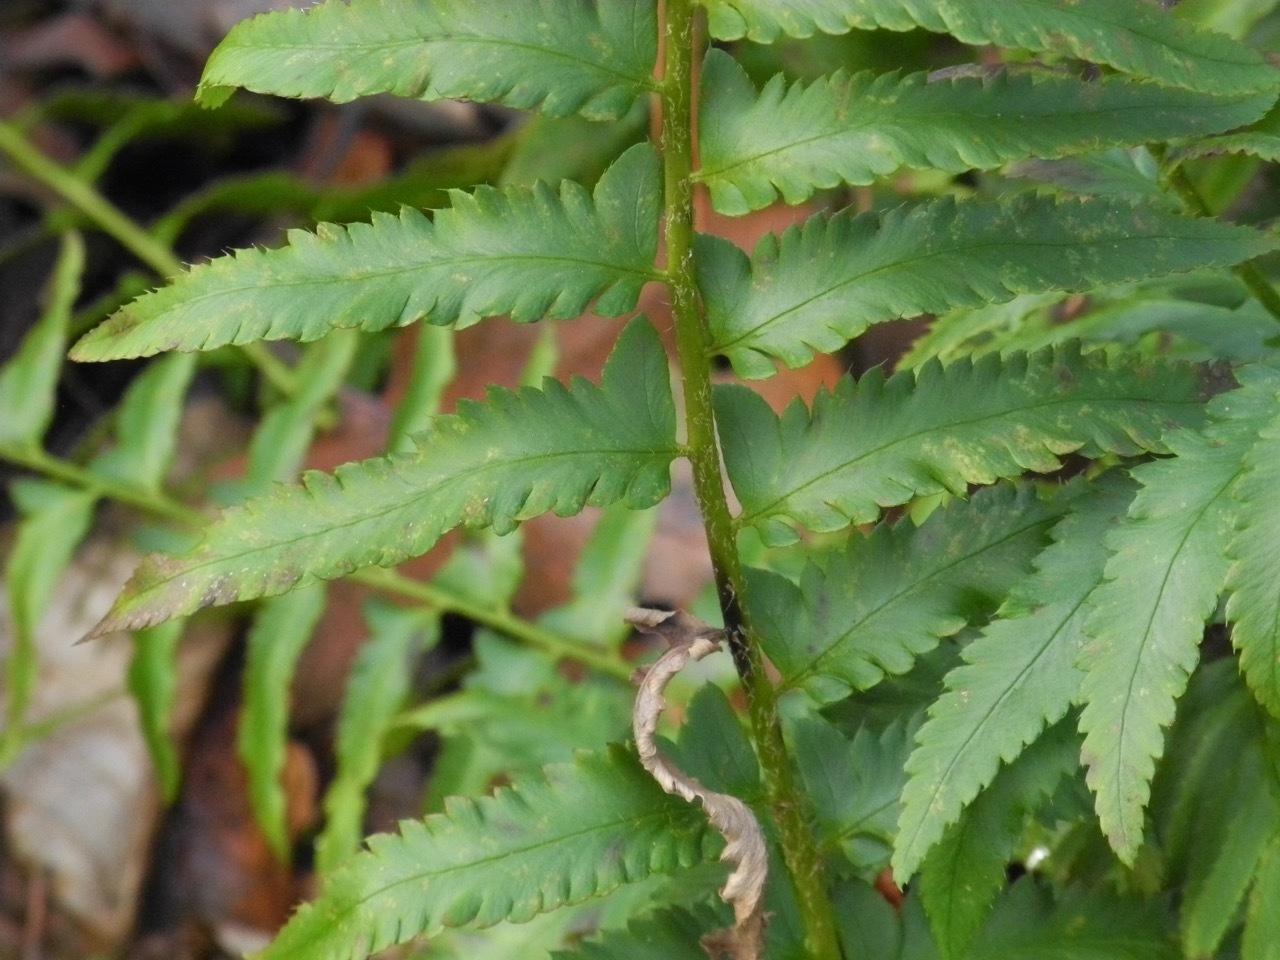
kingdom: Plantae
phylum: Tracheophyta
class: Polypodiopsida
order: Polypodiales
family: Dryopteridaceae
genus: Polystichum
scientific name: Polystichum acrostichoides
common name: Christmas fern
